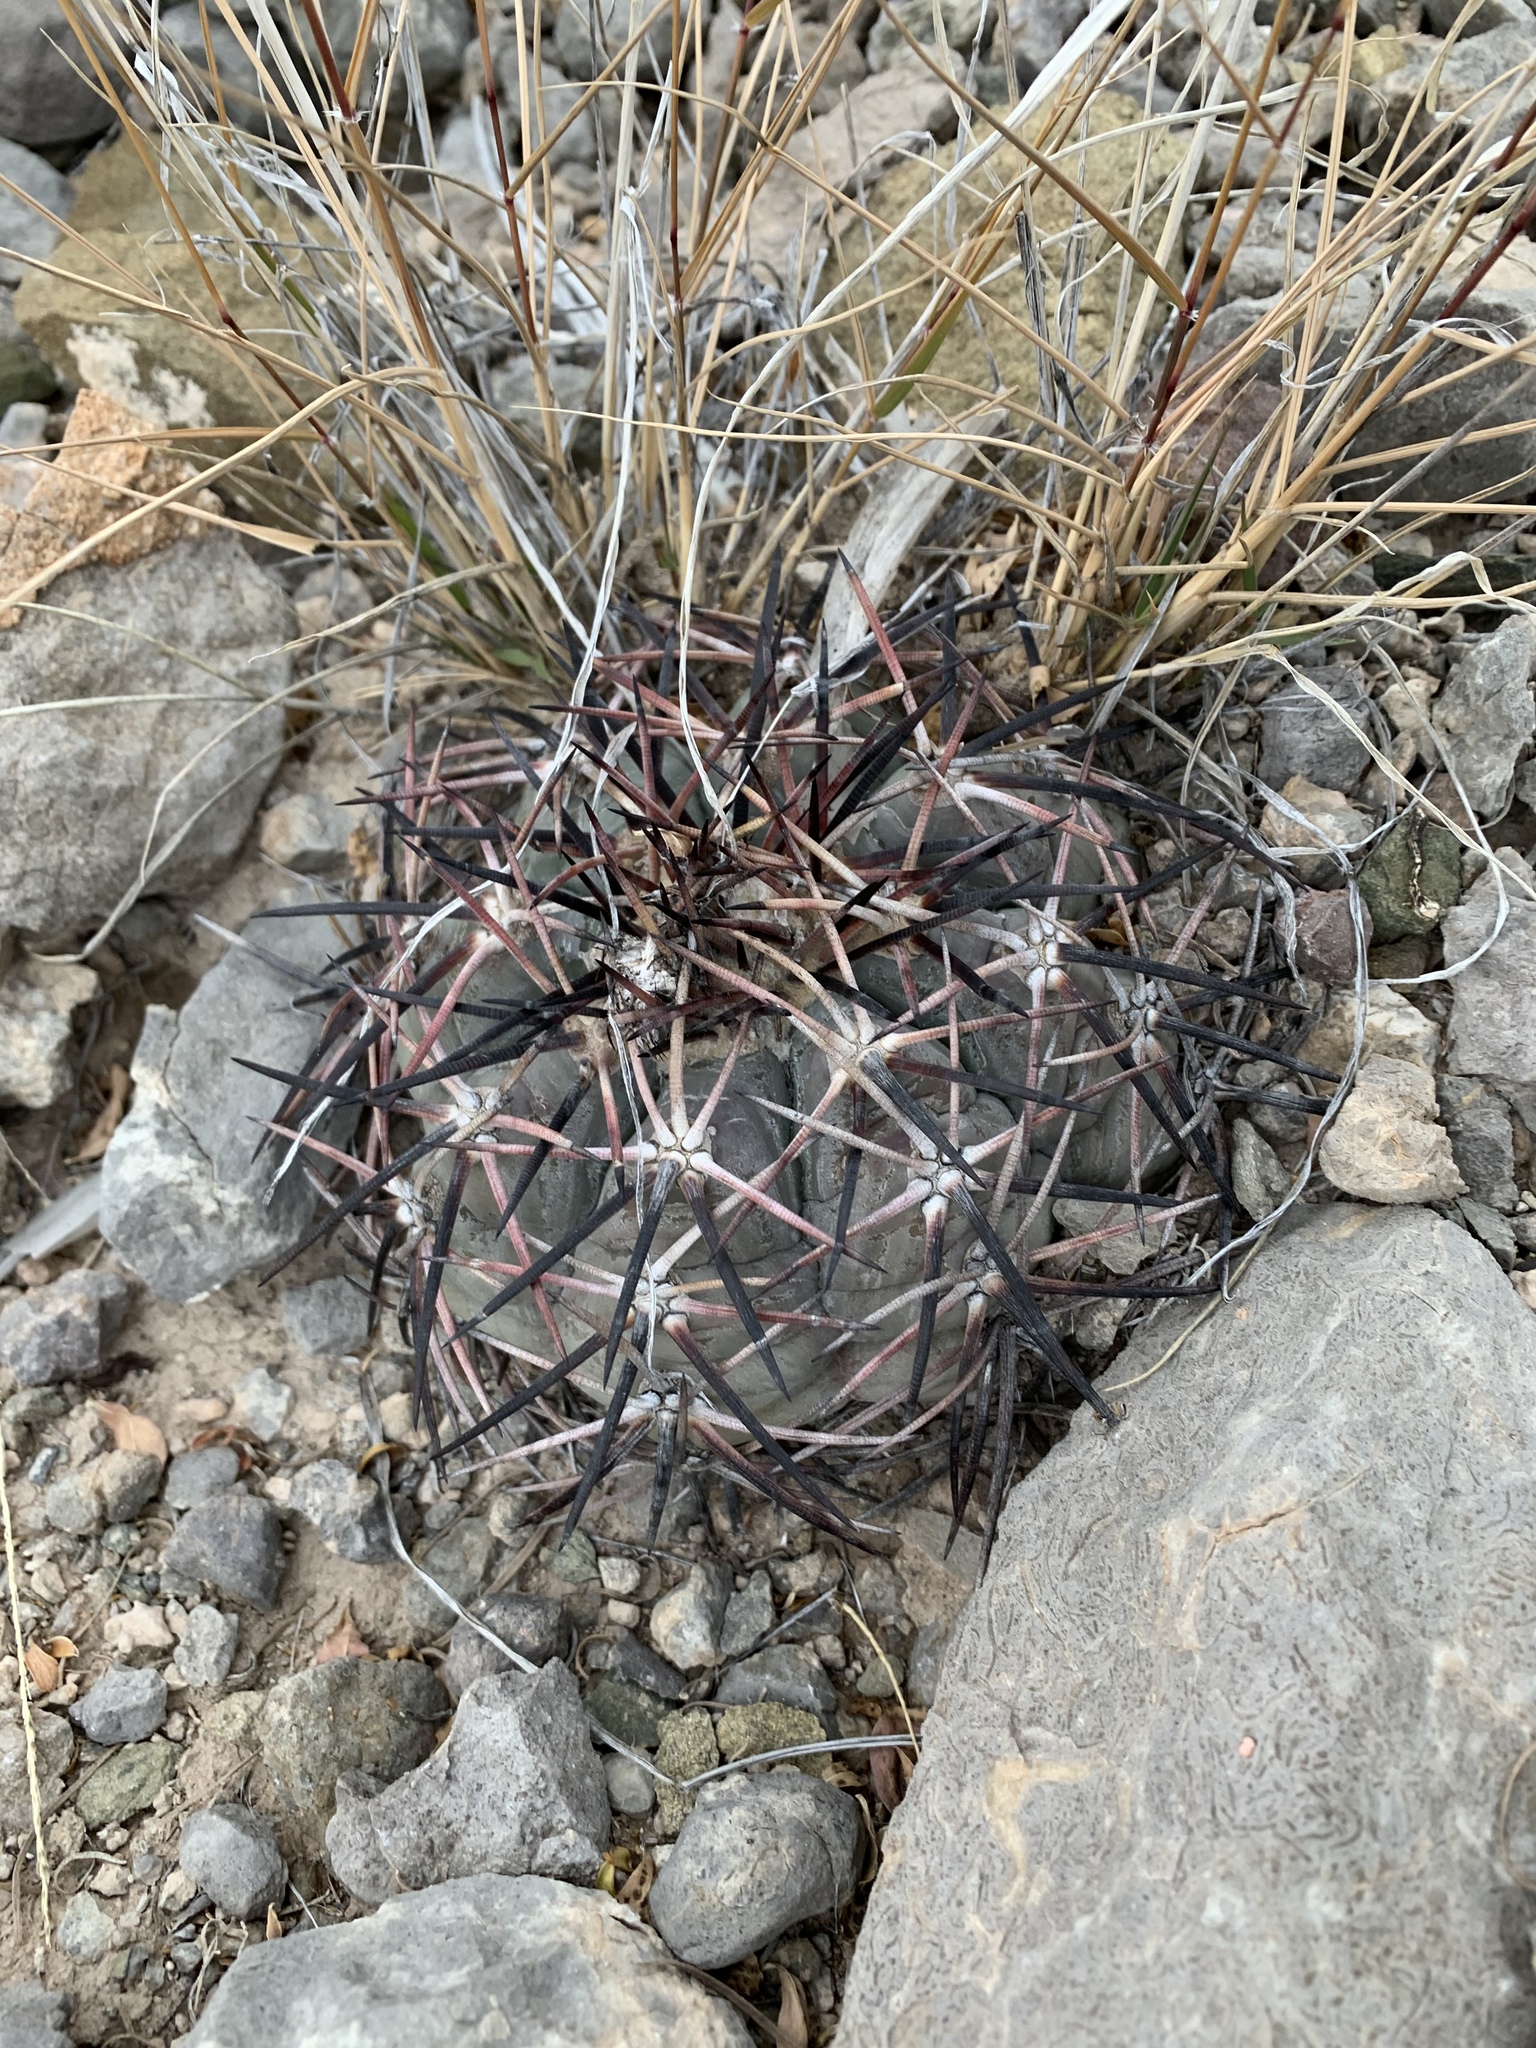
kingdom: Plantae
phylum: Tracheophyta
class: Magnoliopsida
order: Caryophyllales
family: Cactaceae
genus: Echinocactus
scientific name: Echinocactus horizonthalonius
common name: Devilshead
